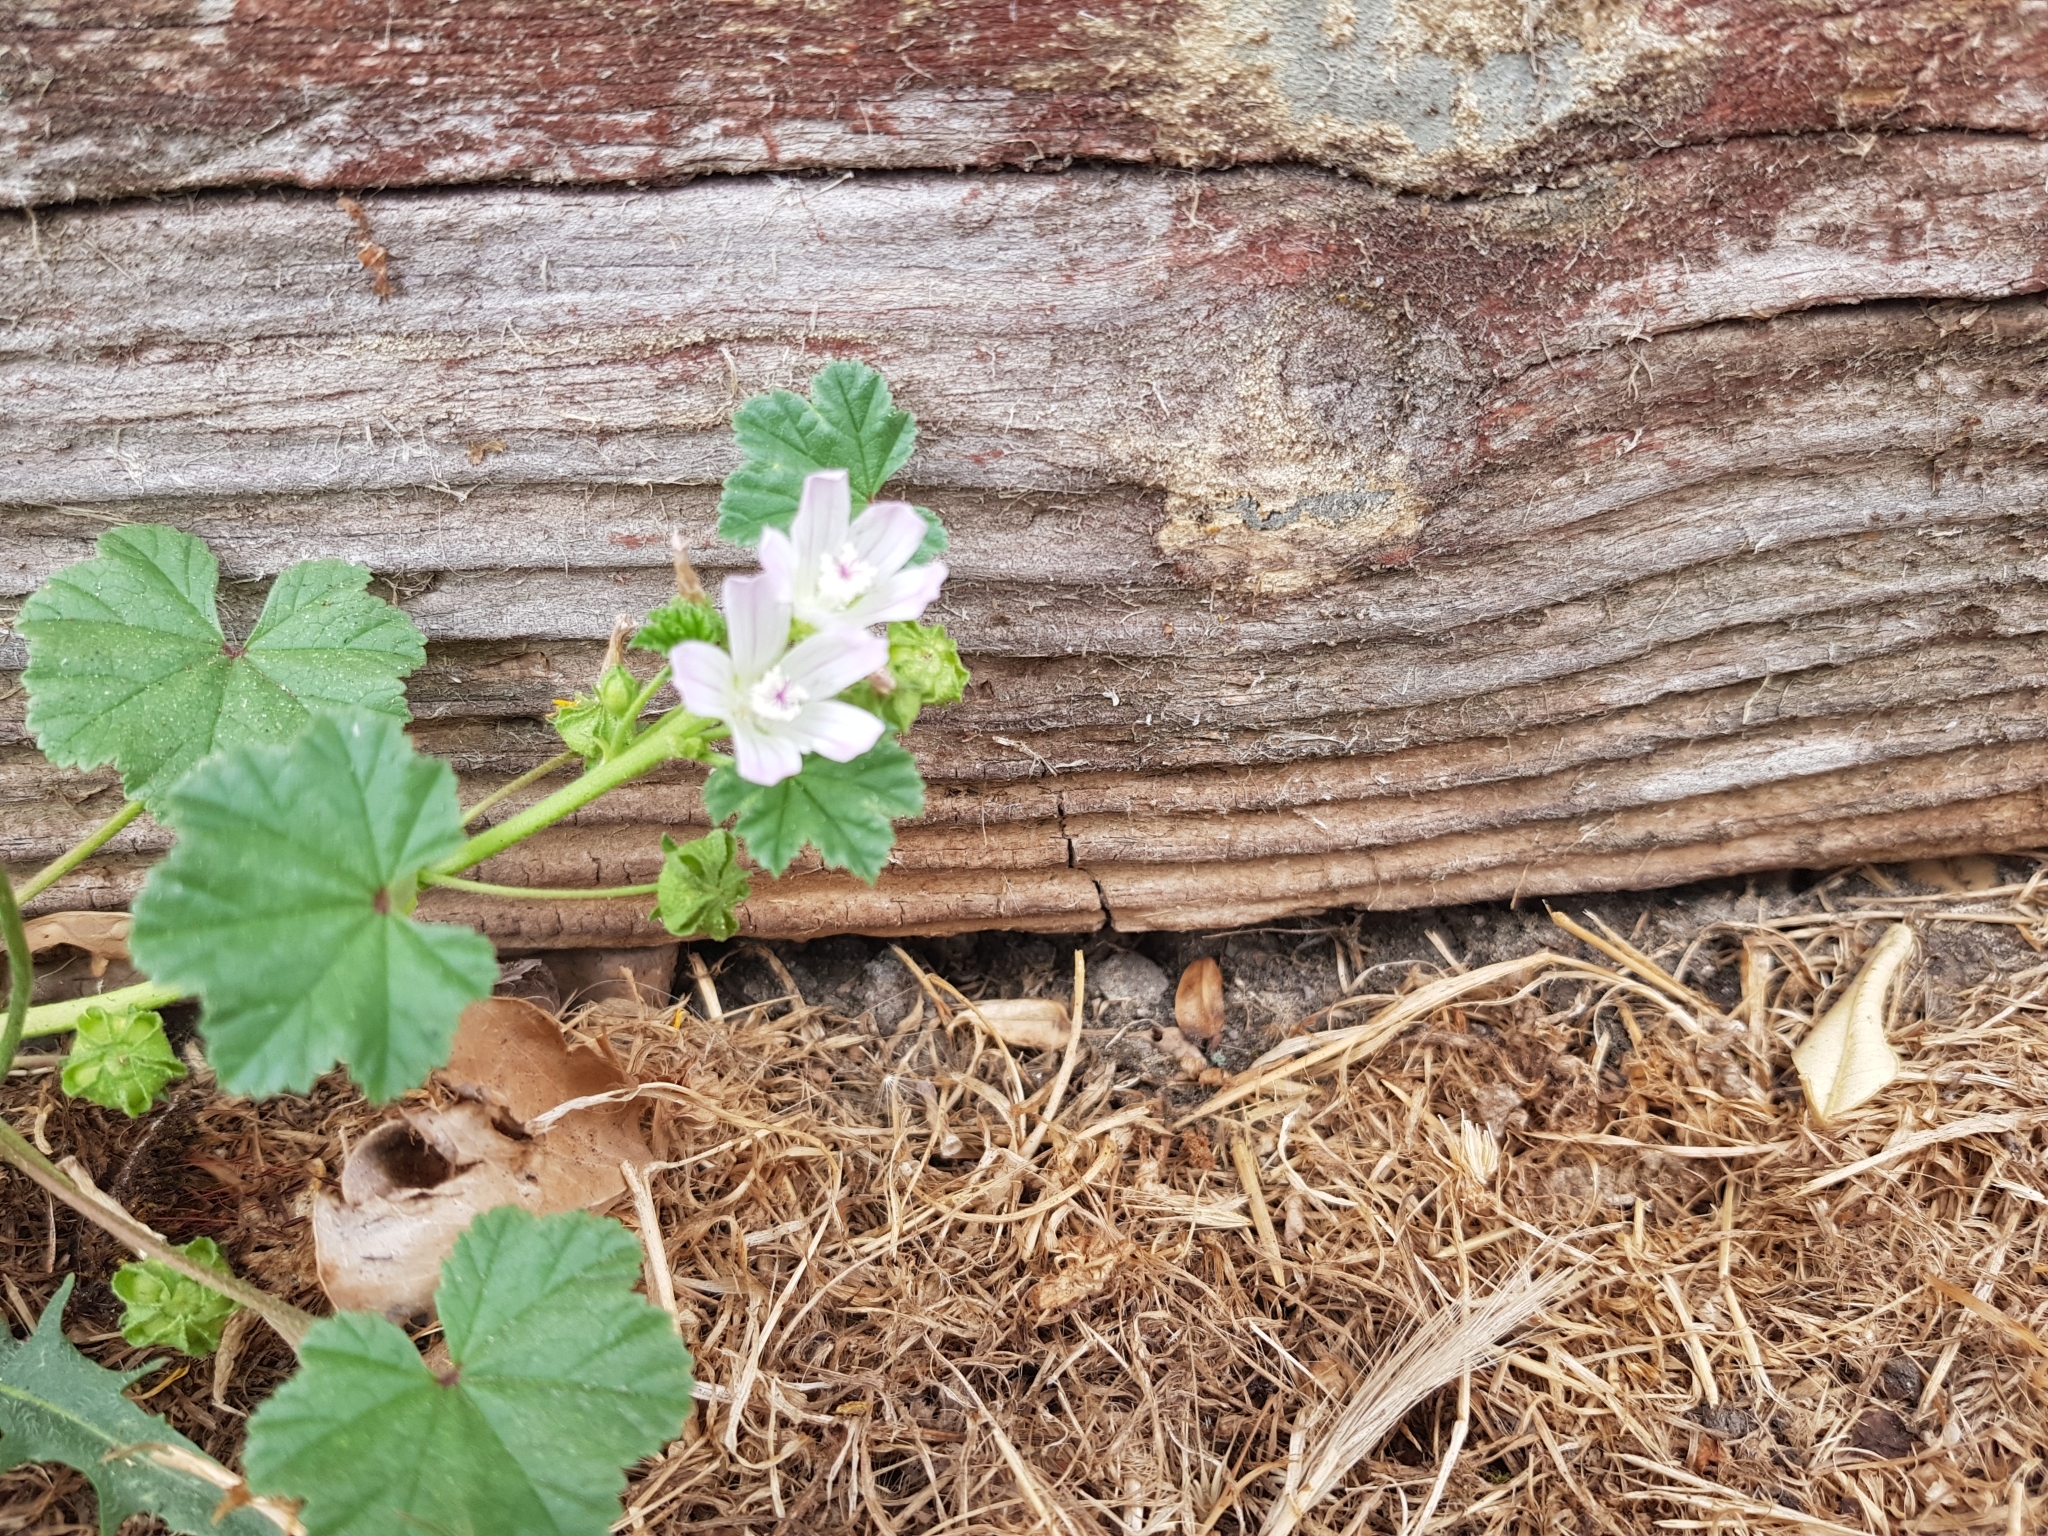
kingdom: Plantae
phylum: Tracheophyta
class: Magnoliopsida
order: Malvales
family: Malvaceae
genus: Malva
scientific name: Malva neglecta
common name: Common mallow
